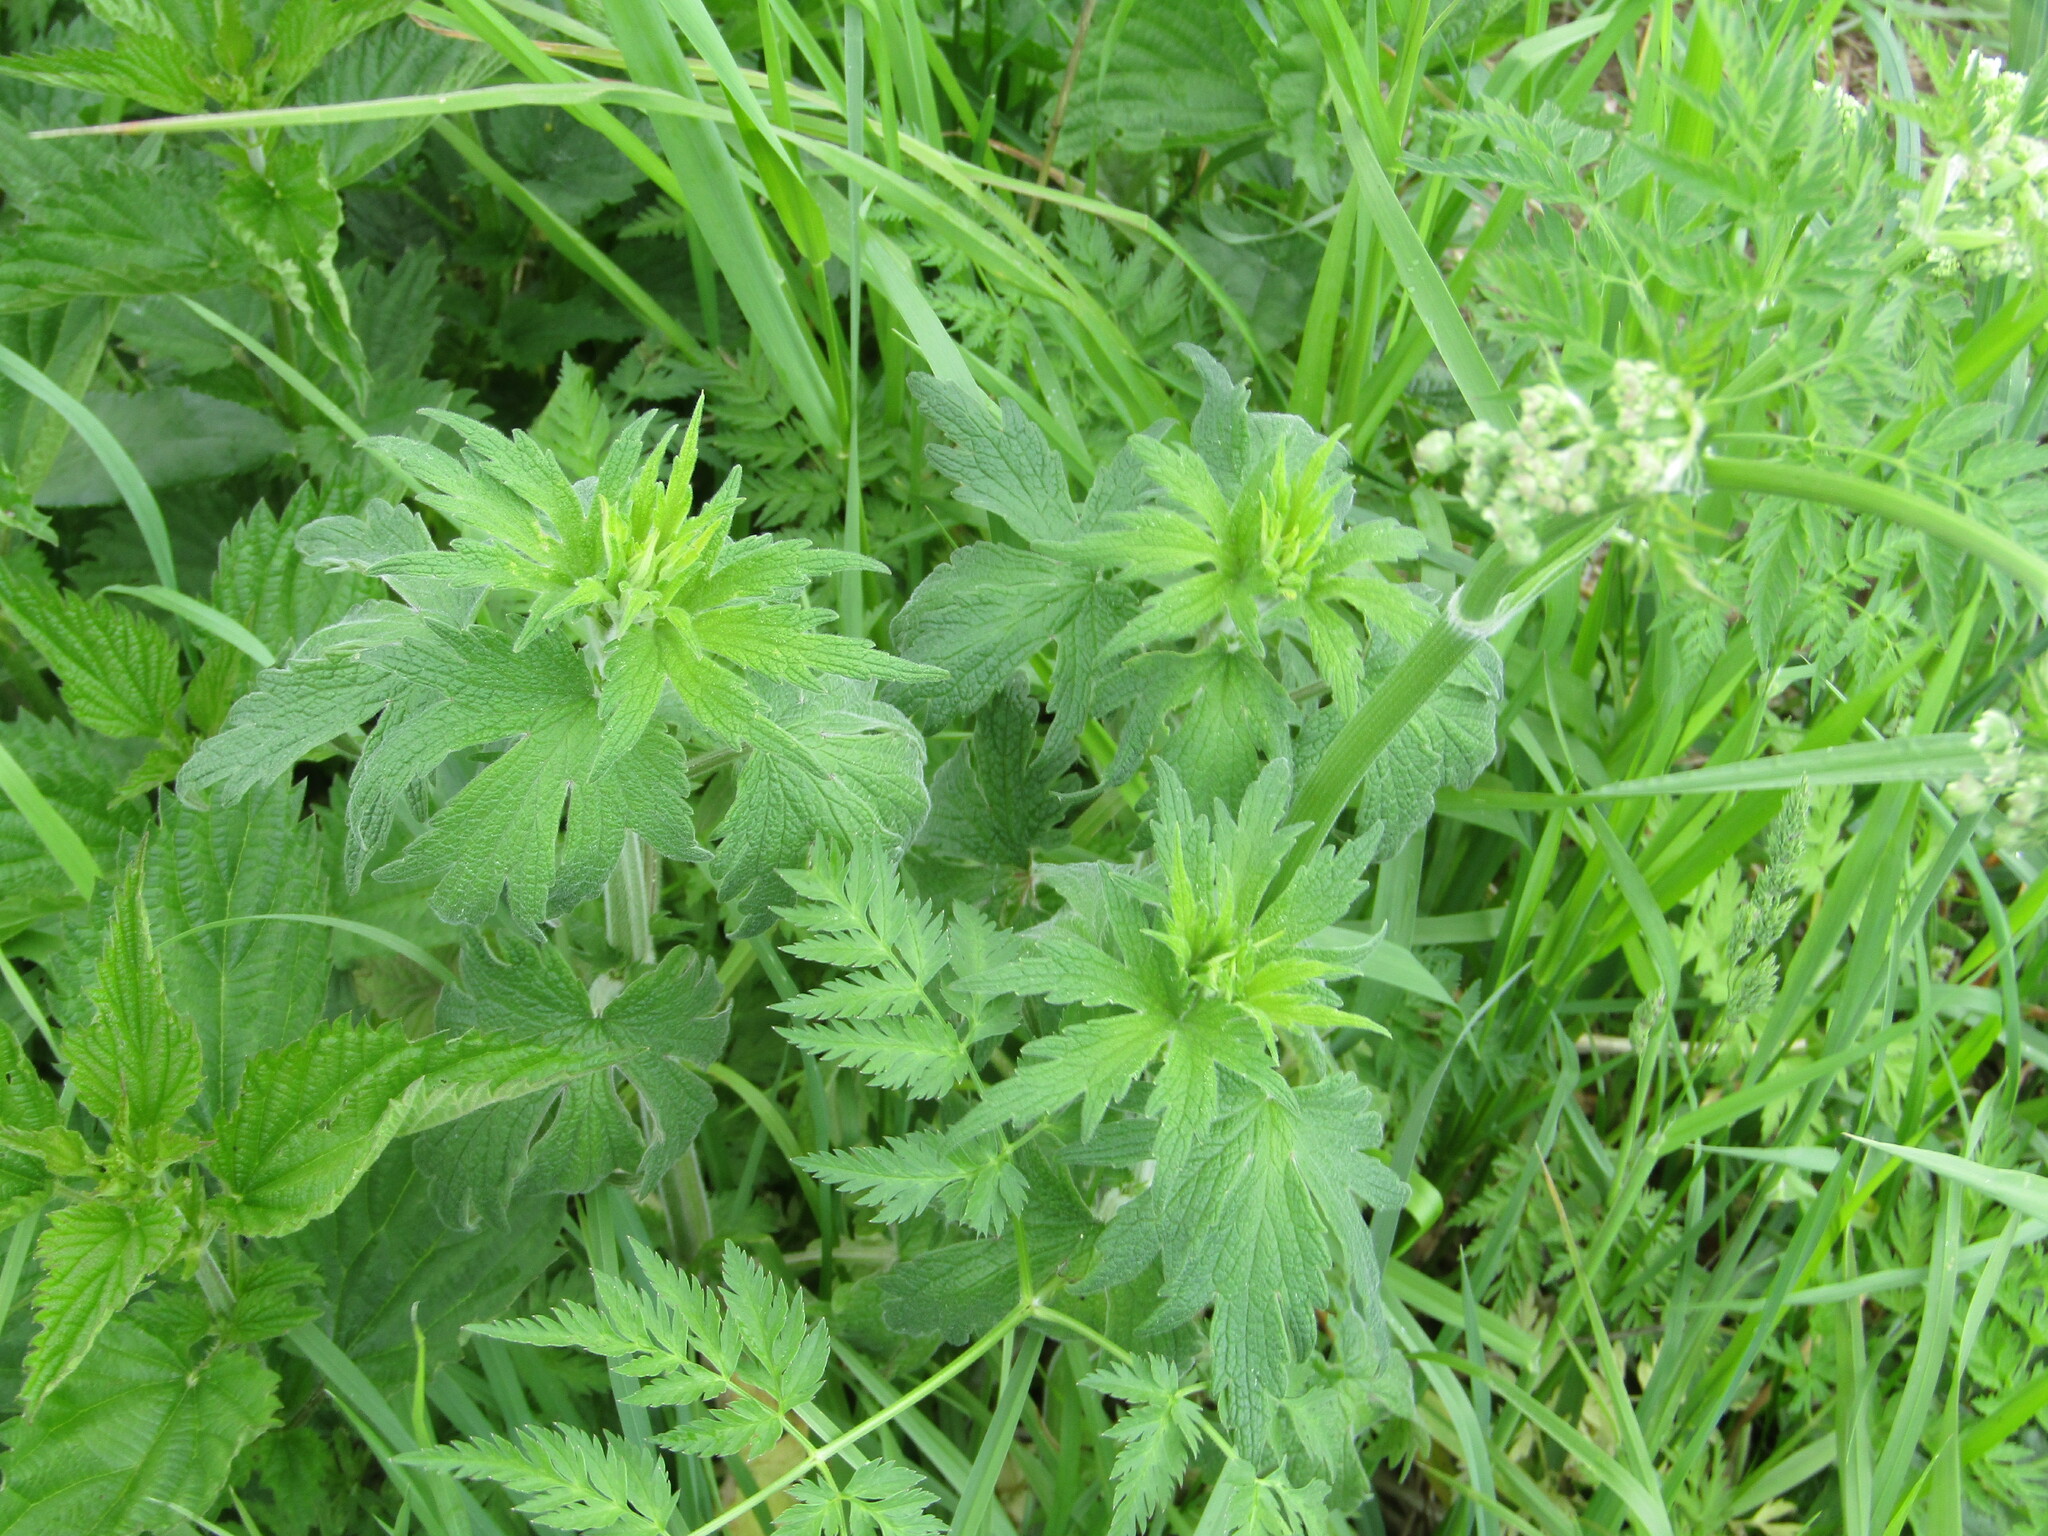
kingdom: Plantae
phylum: Tracheophyta
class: Magnoliopsida
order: Lamiales
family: Lamiaceae
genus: Leonurus
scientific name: Leonurus quinquelobatus
